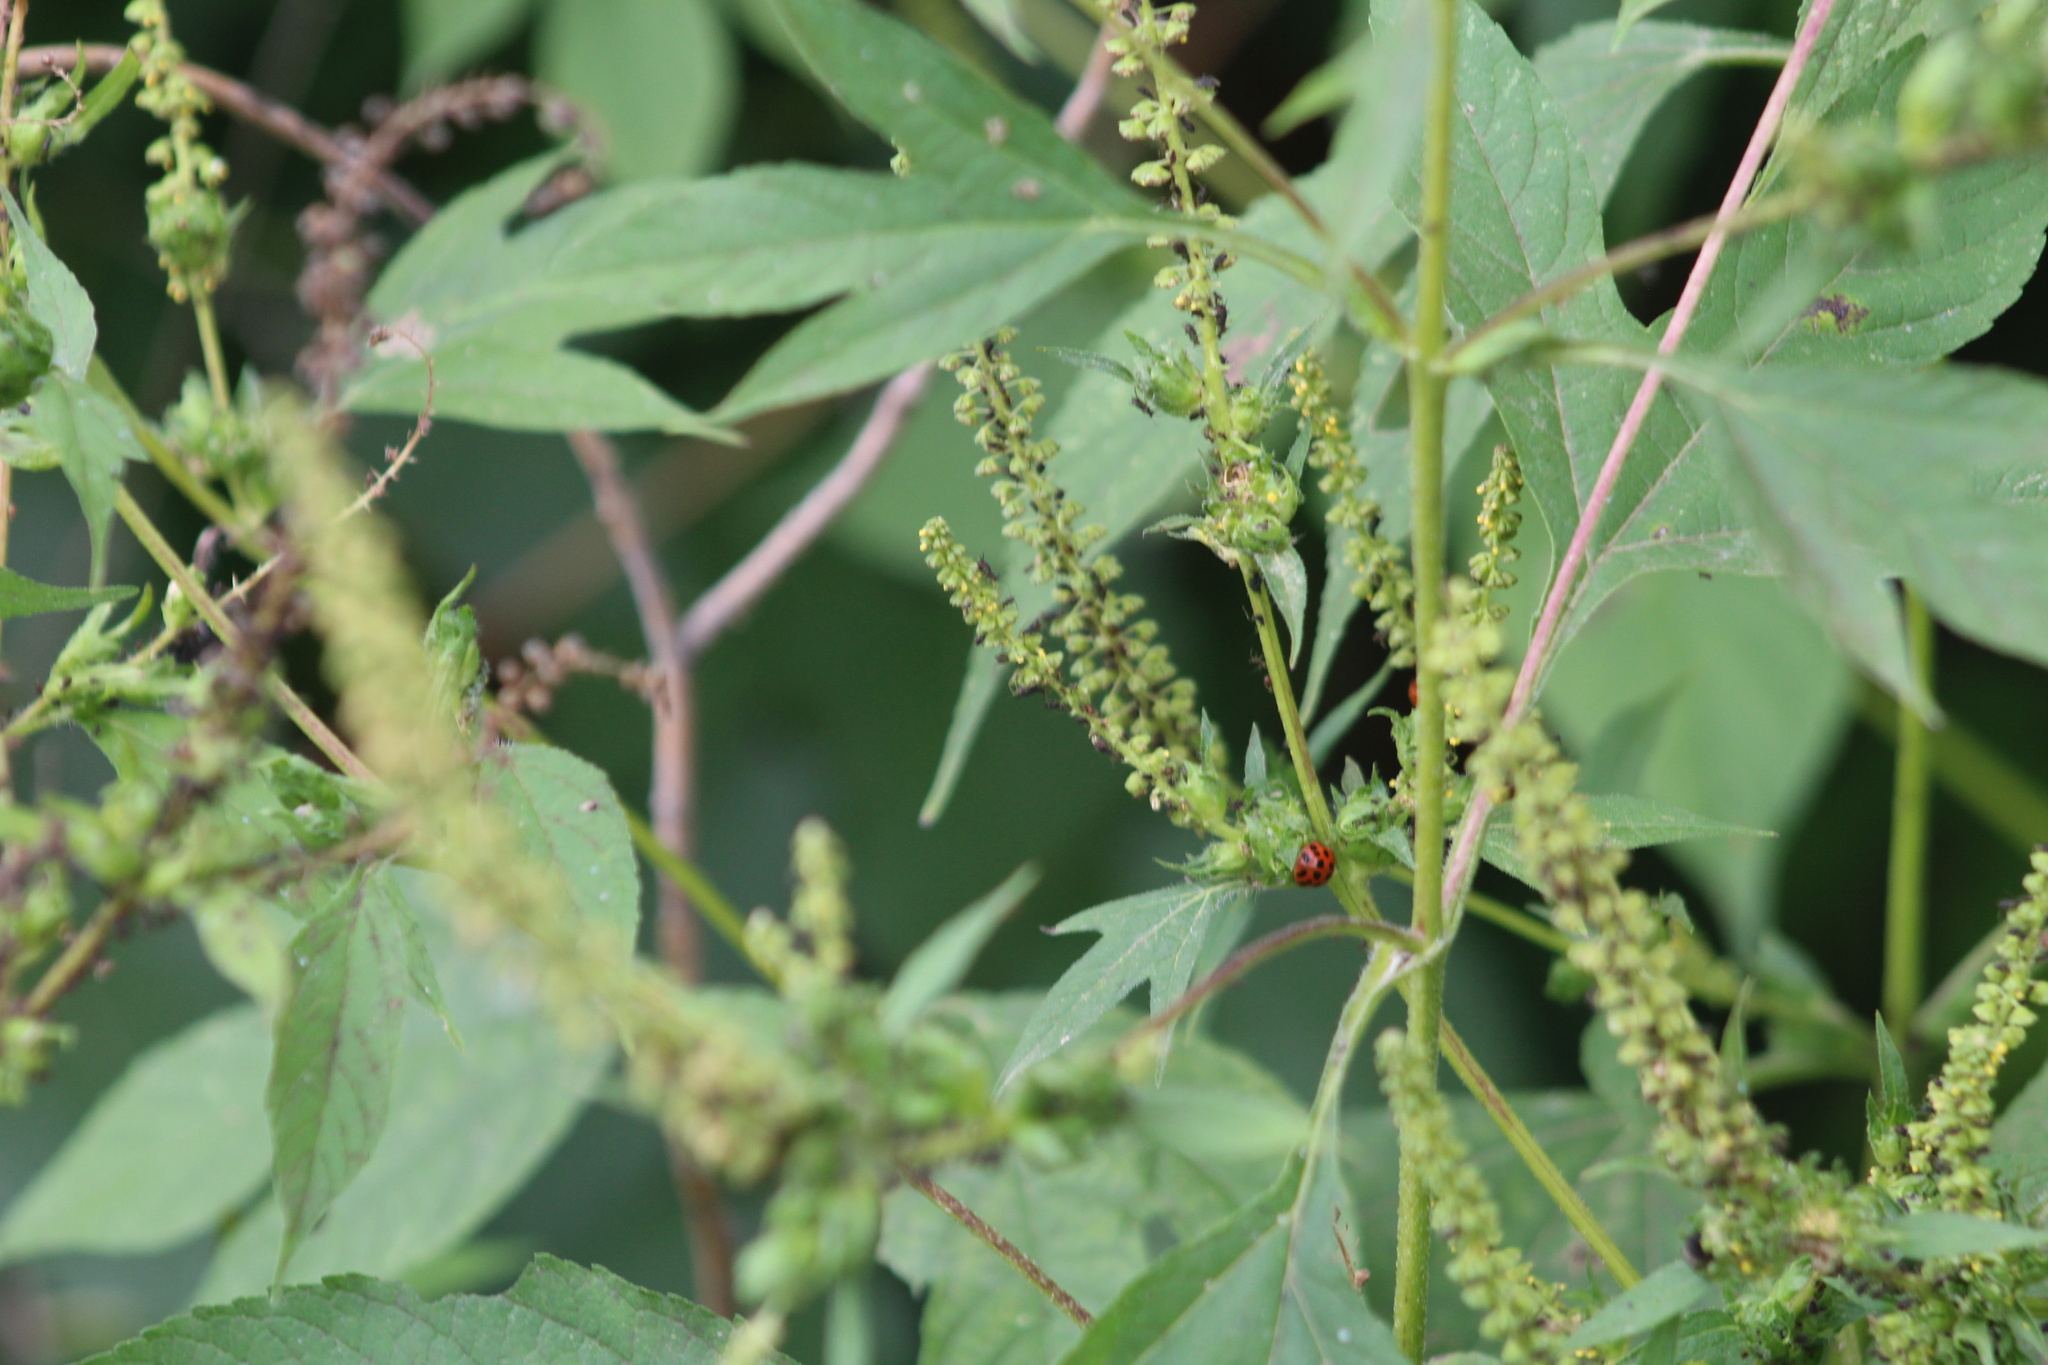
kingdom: Plantae
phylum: Tracheophyta
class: Magnoliopsida
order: Asterales
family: Asteraceae
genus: Ambrosia
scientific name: Ambrosia trifida
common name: Giant ragweed
